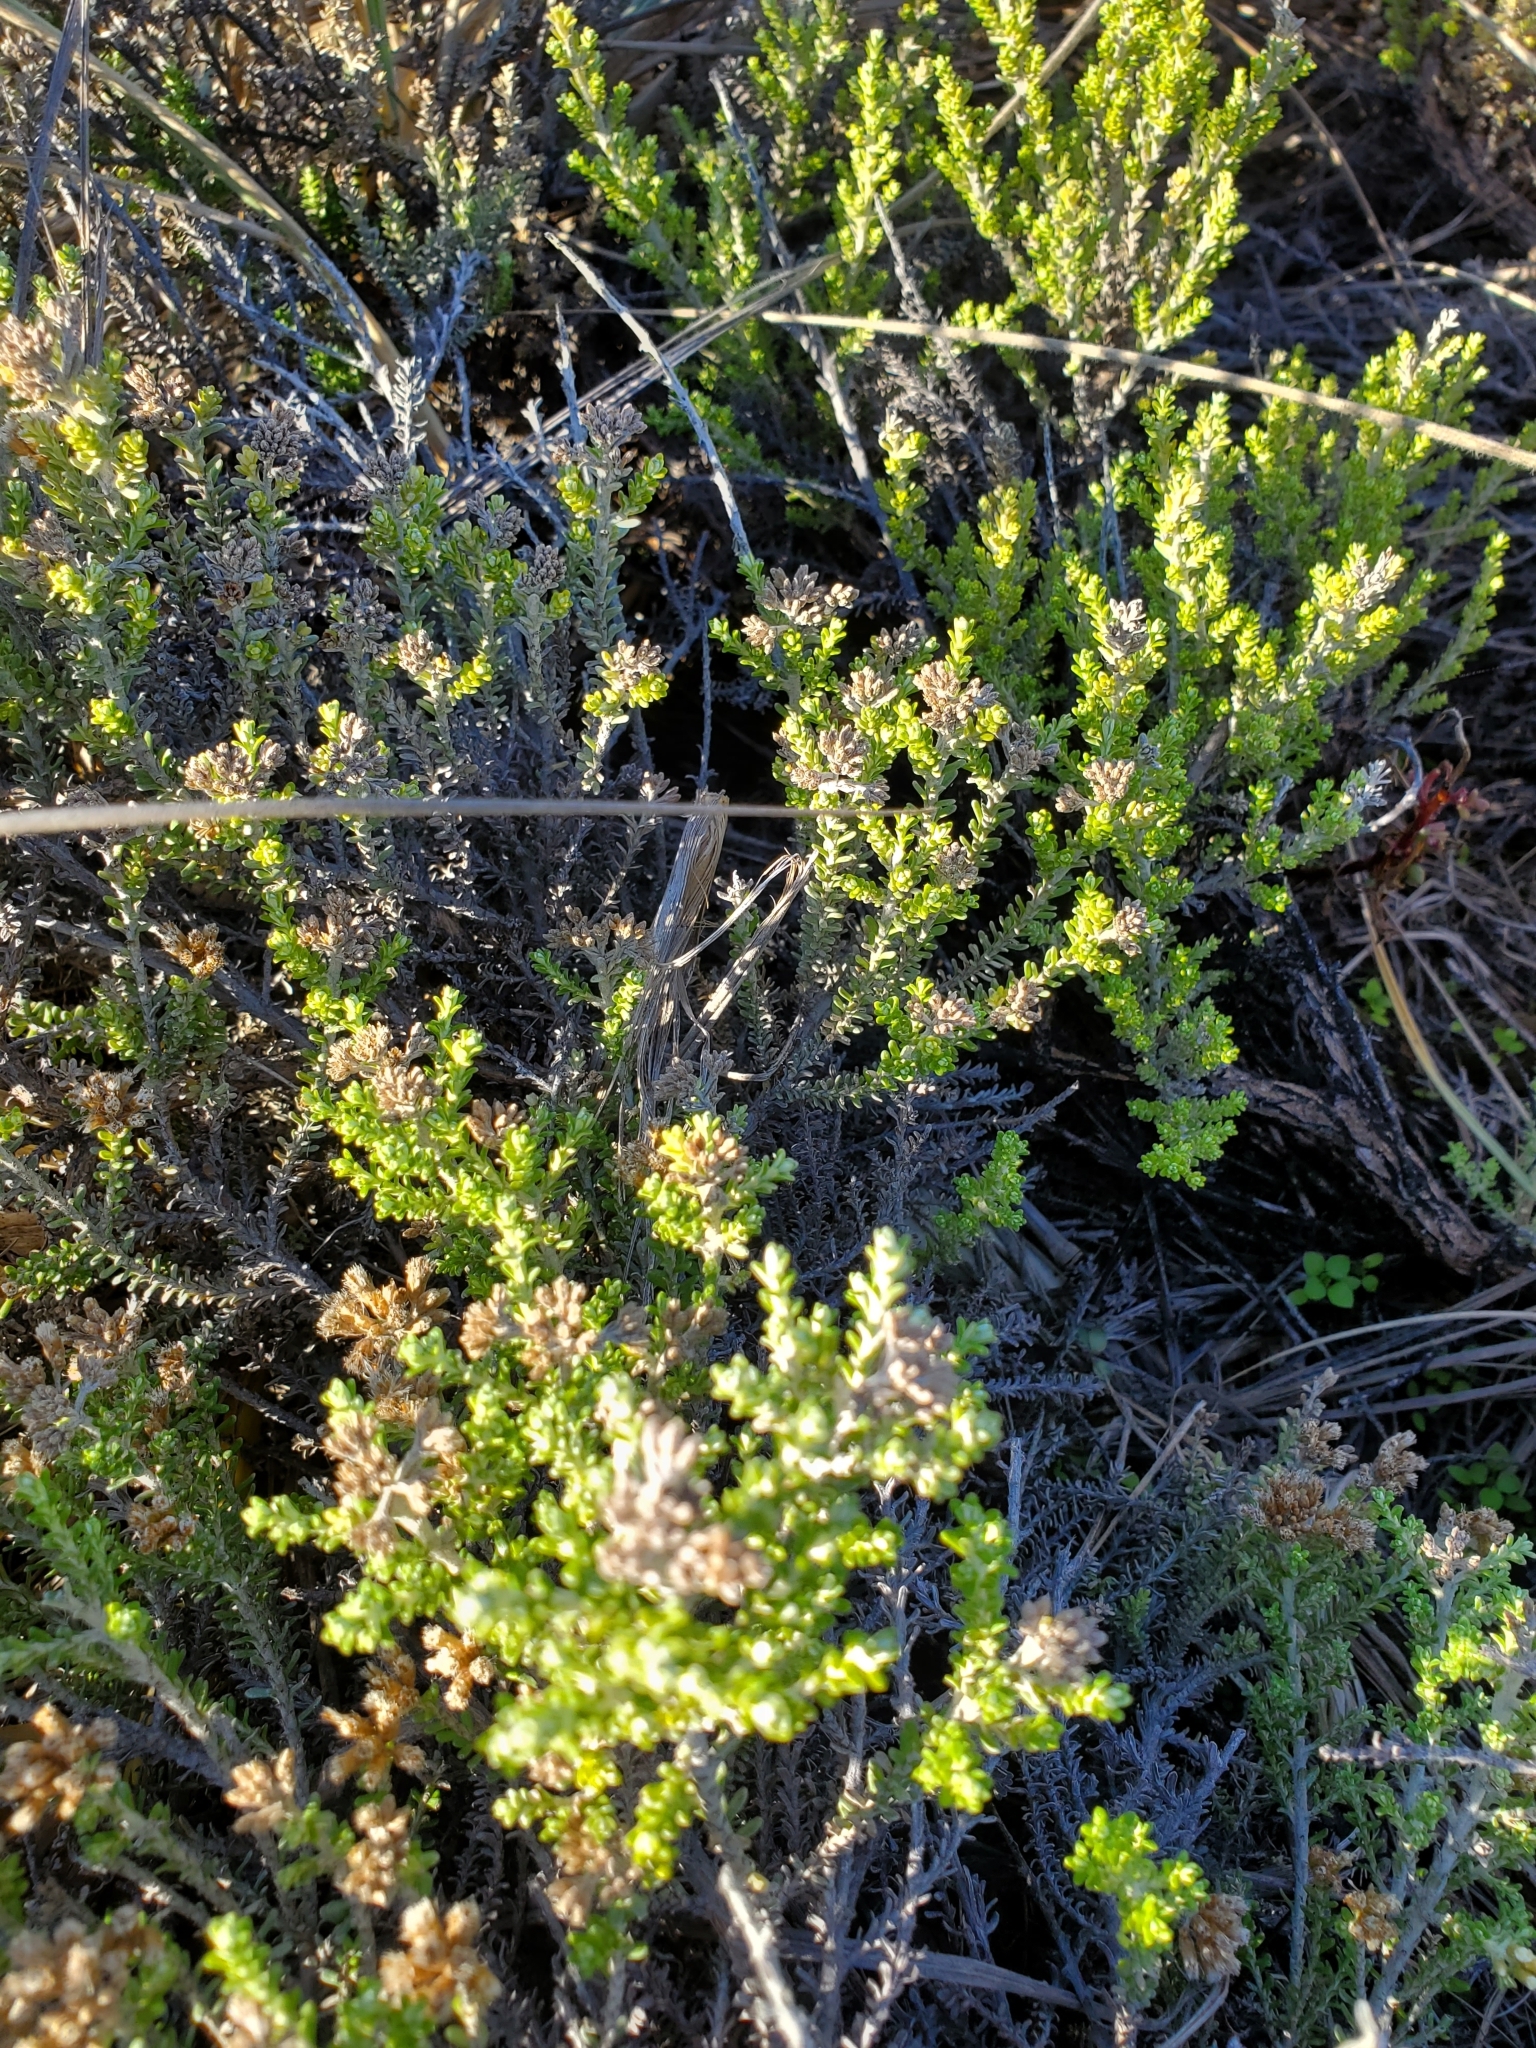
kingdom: Plantae
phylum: Tracheophyta
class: Magnoliopsida
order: Asterales
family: Asteraceae
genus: Ozothamnus
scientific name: Ozothamnus leptophyllus
